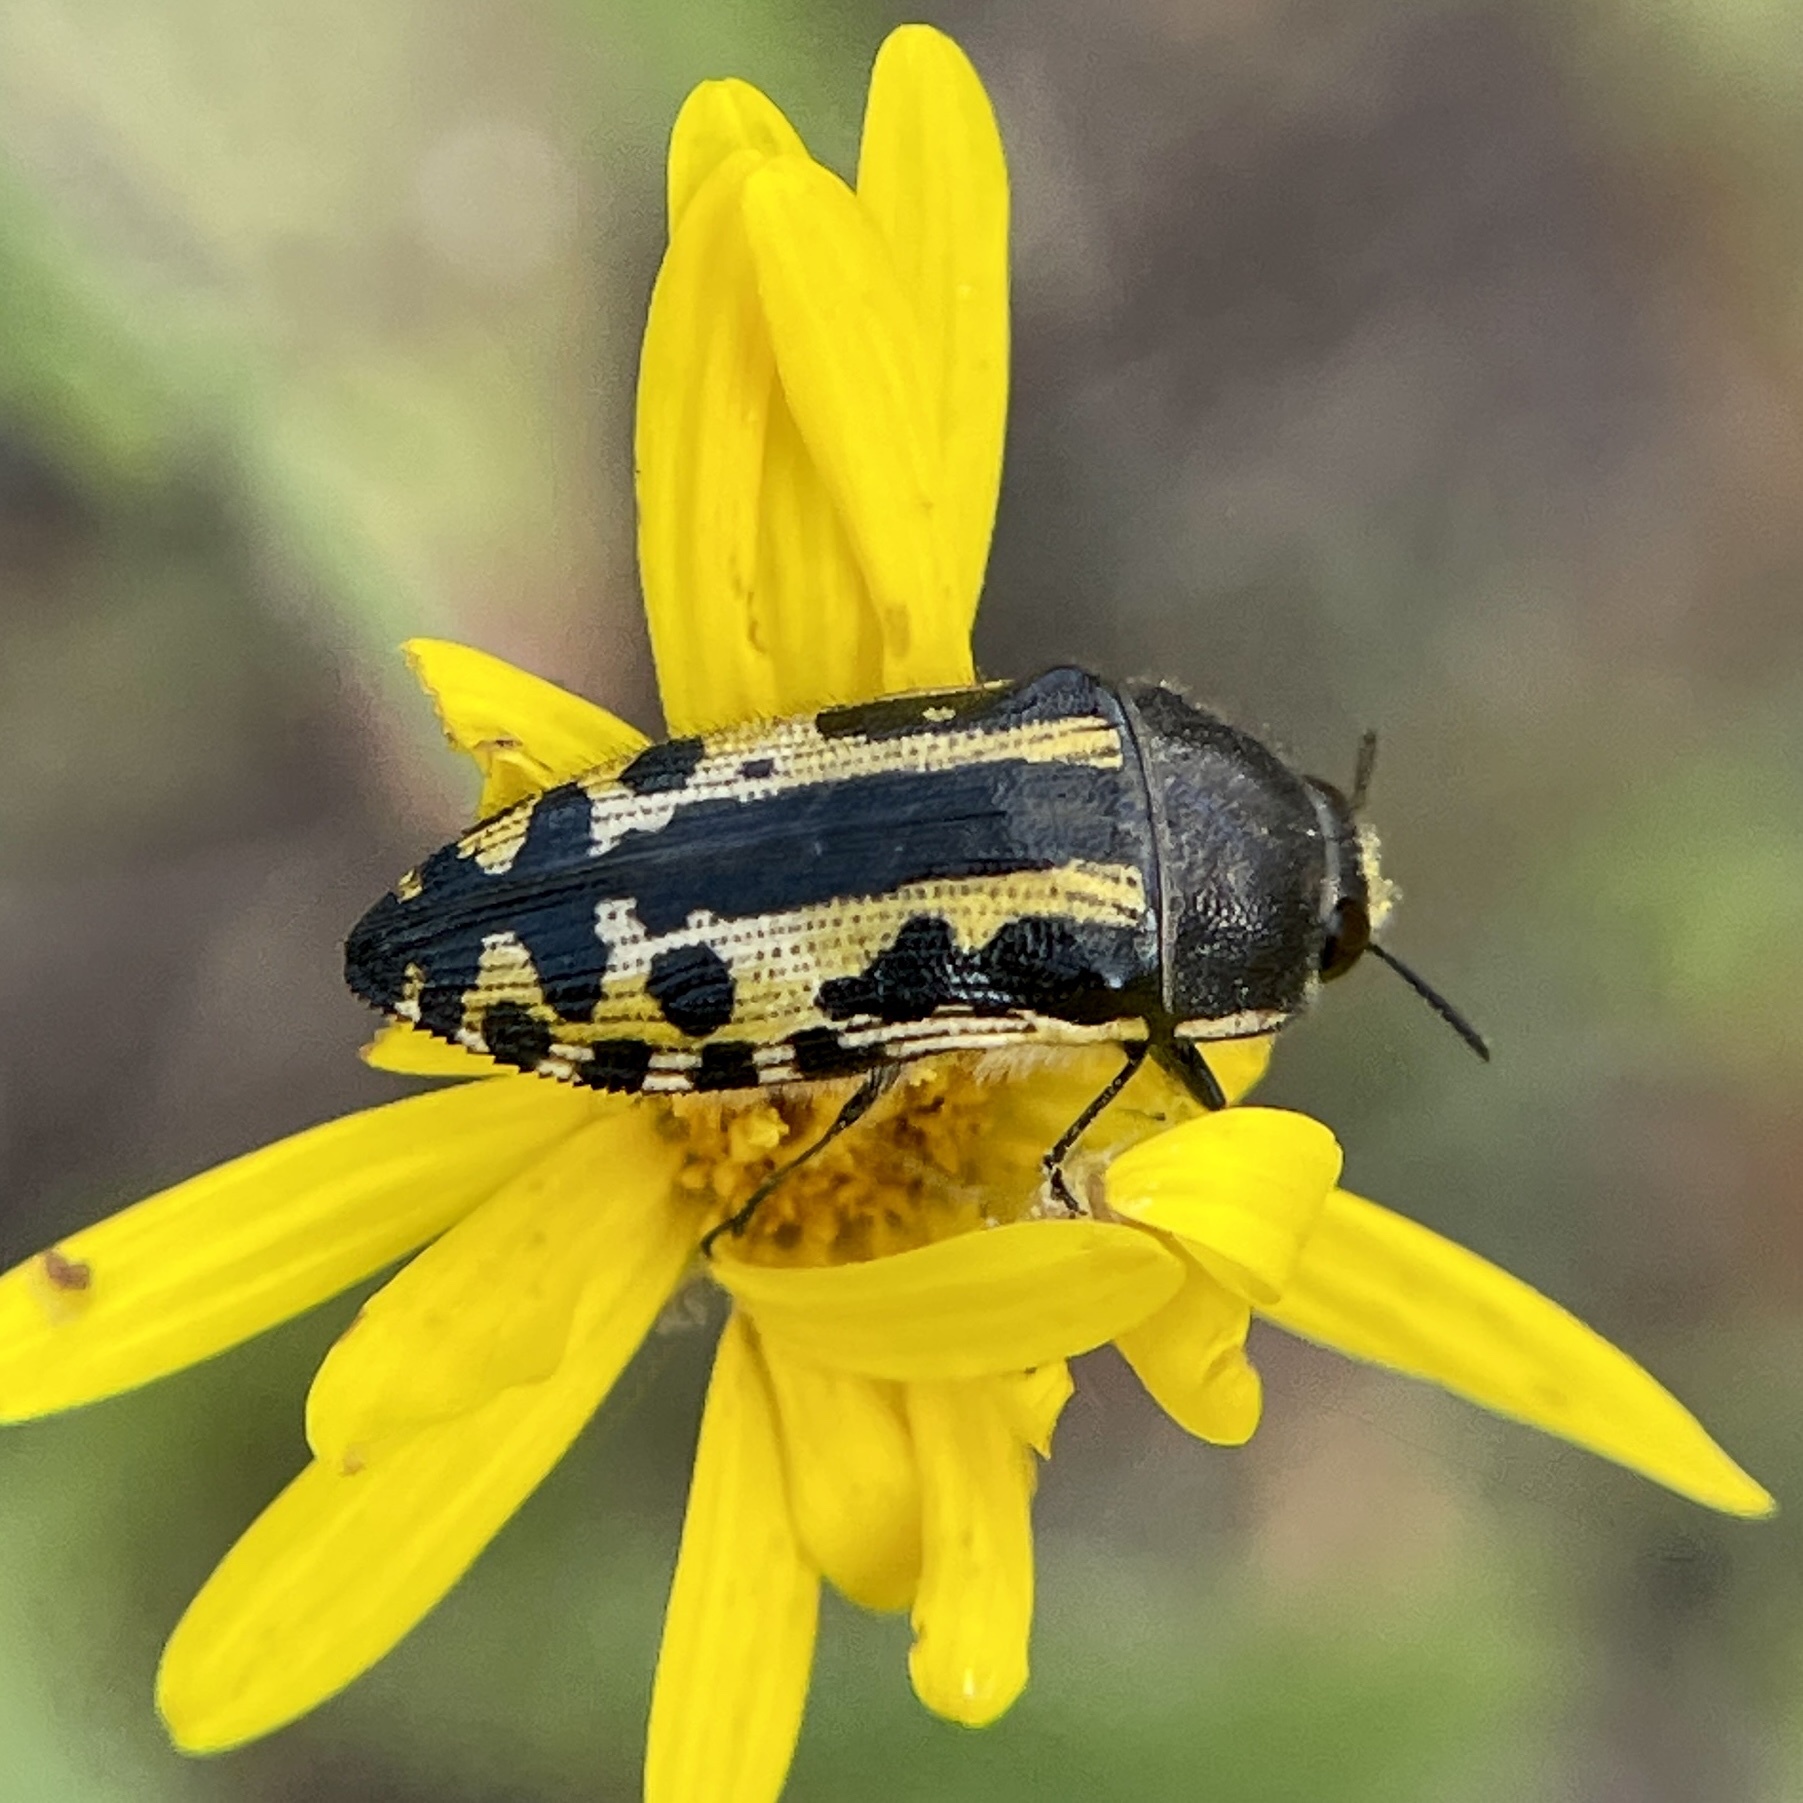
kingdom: Animalia
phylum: Arthropoda
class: Insecta
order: Coleoptera
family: Buprestidae
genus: Acmaeodera
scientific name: Acmaeodera scalaris
